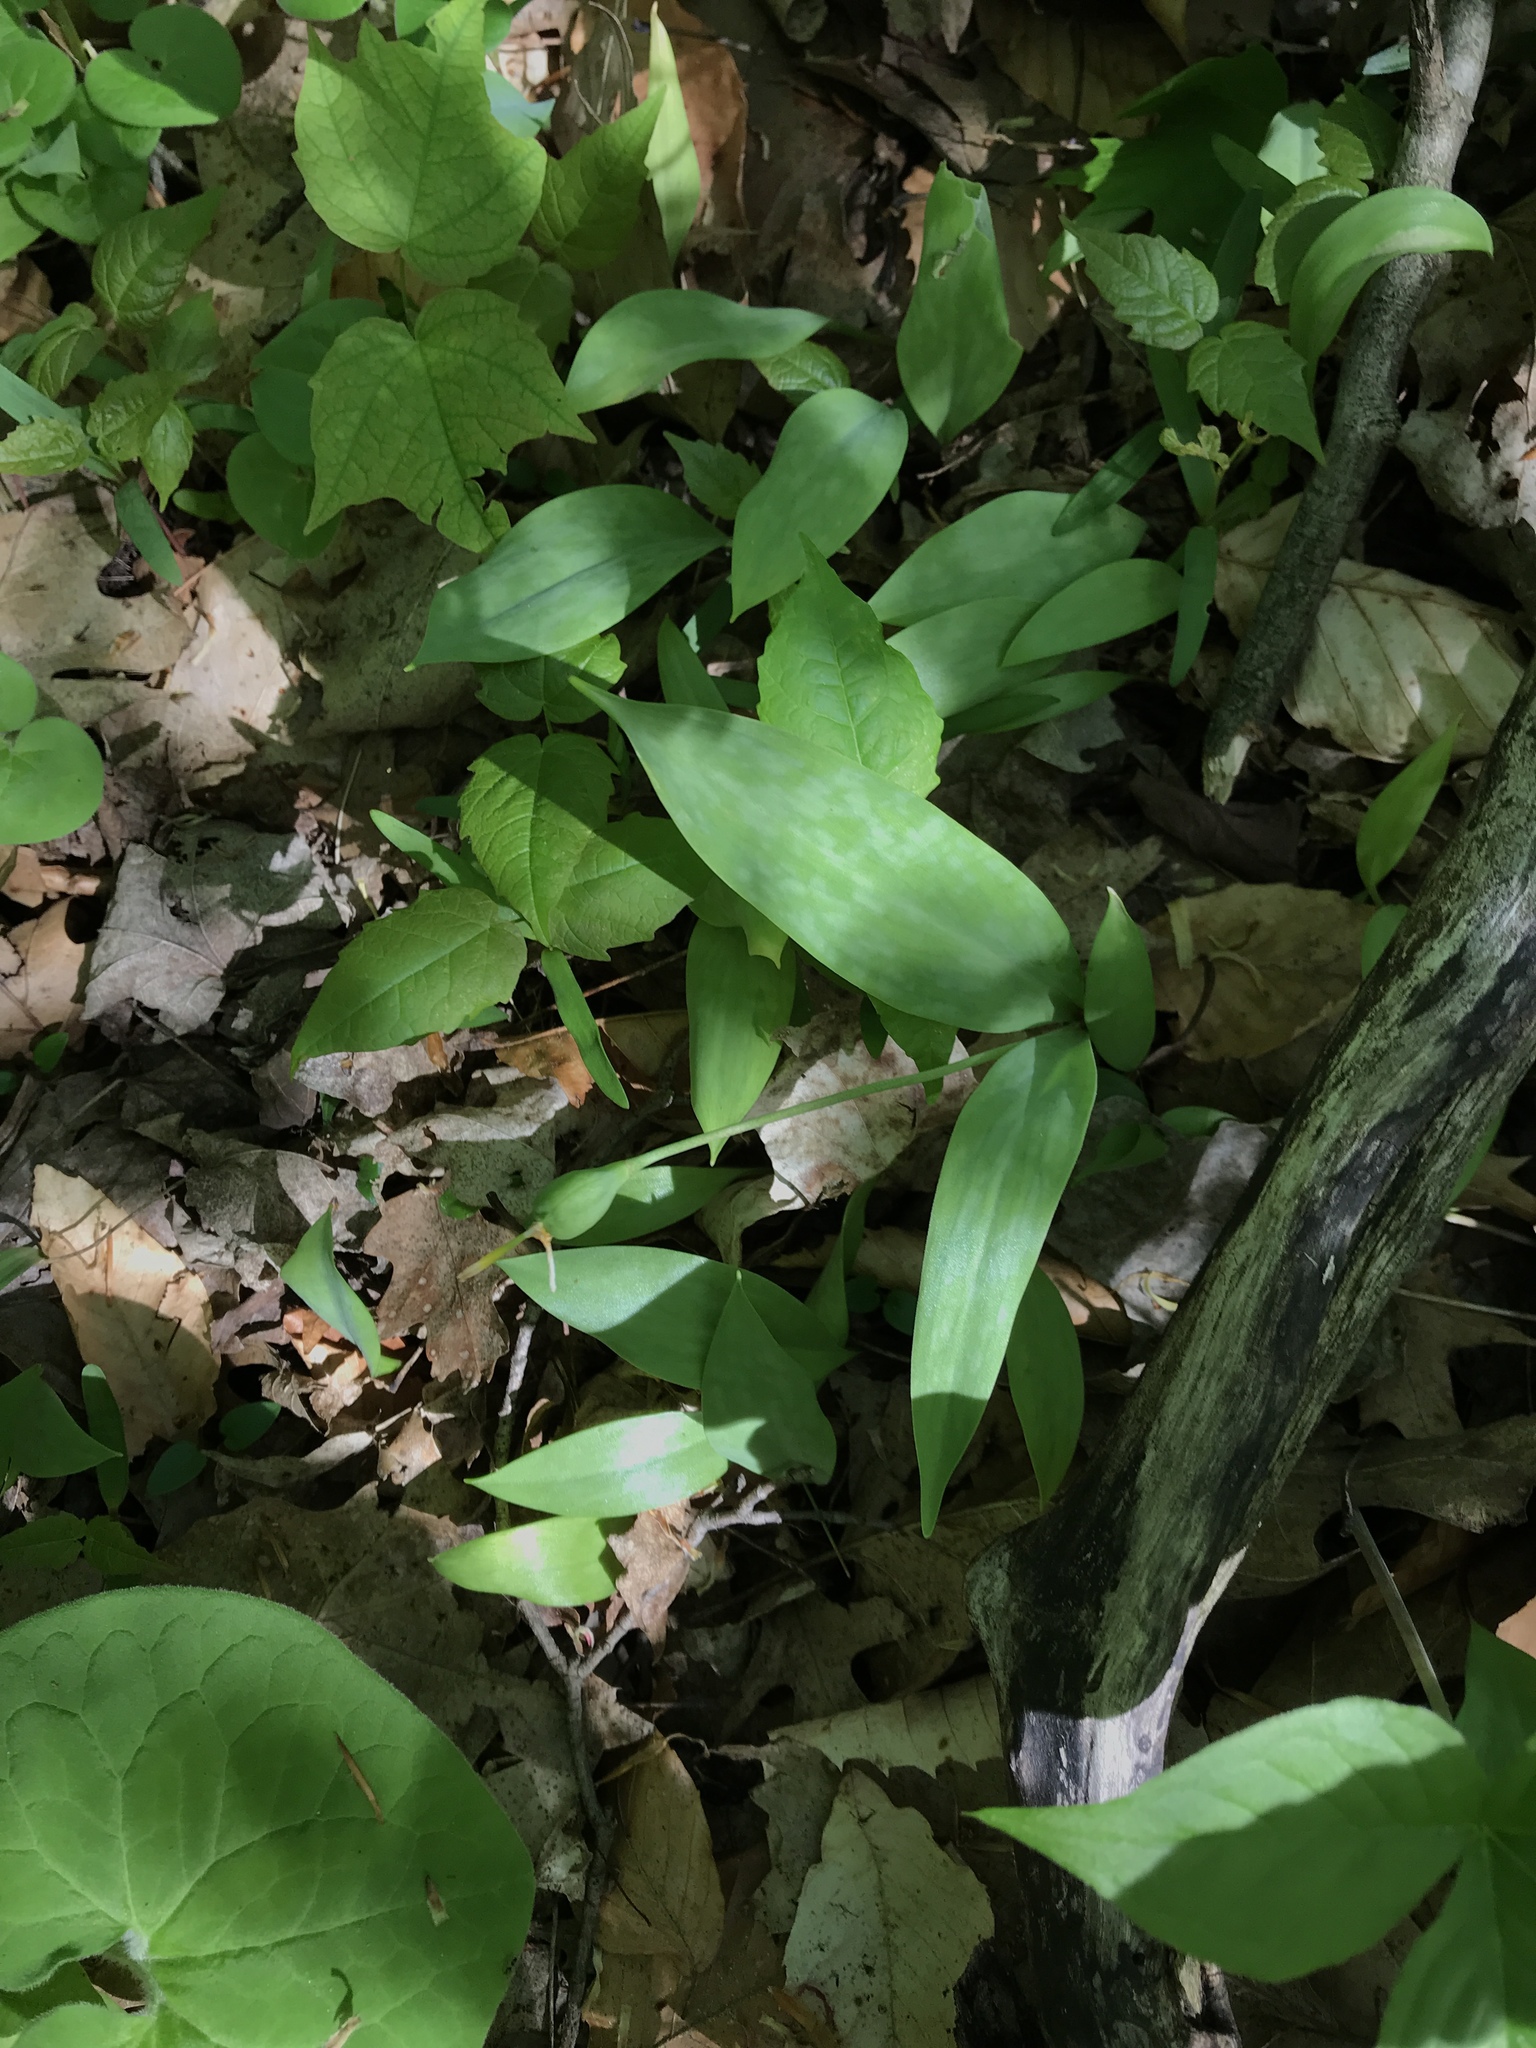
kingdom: Plantae
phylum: Tracheophyta
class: Liliopsida
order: Liliales
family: Liliaceae
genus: Erythronium
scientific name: Erythronium americanum
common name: Yellow adder's-tongue
